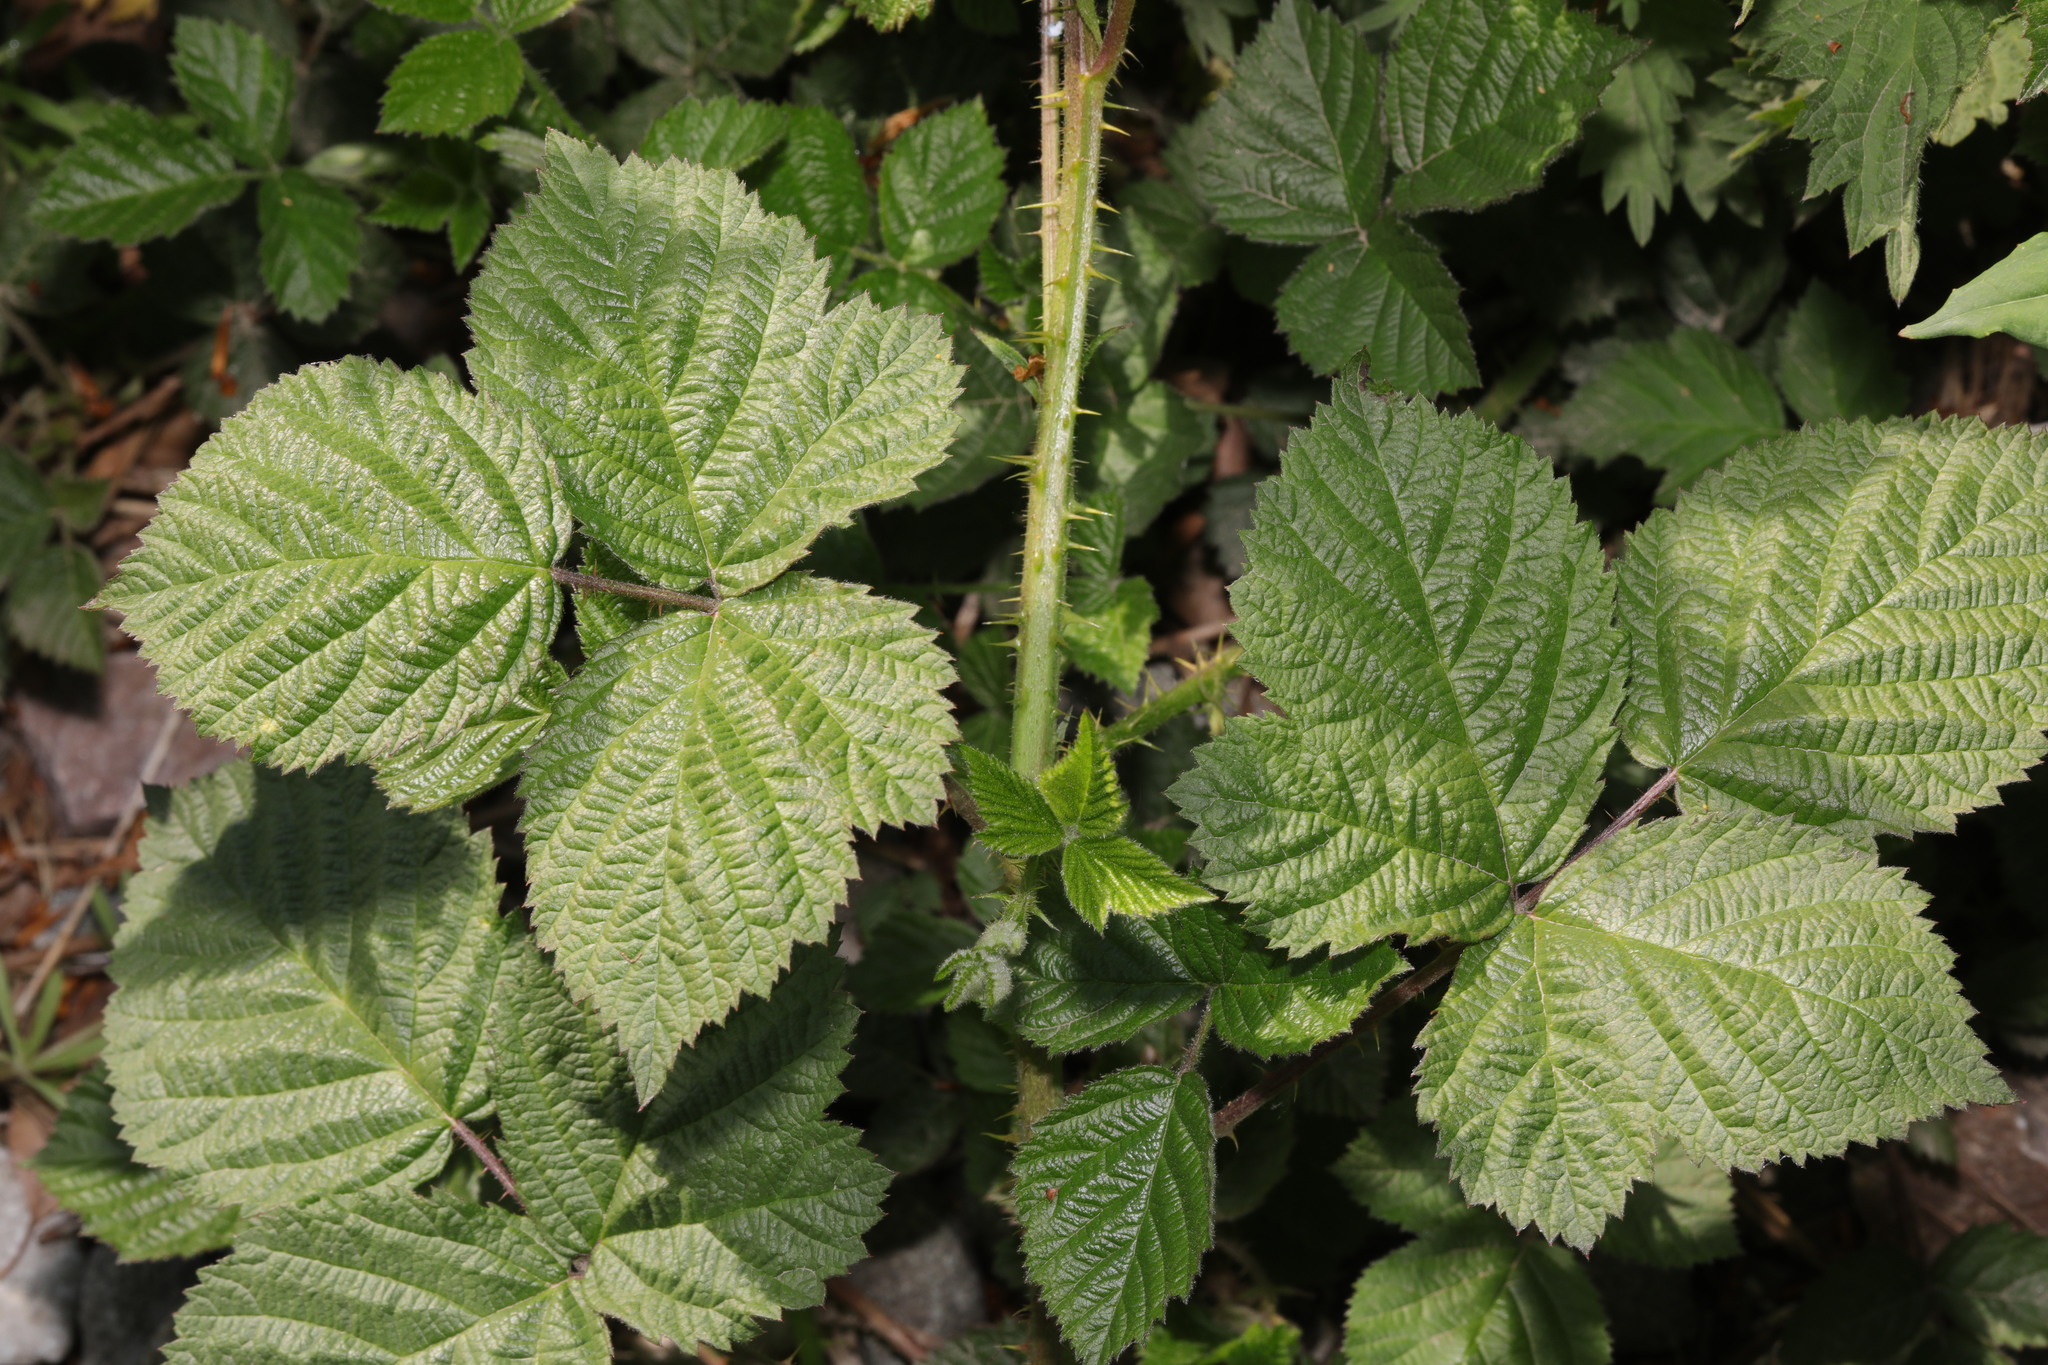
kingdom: Plantae
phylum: Tracheophyta
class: Magnoliopsida
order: Rosales
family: Rosaceae
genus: Rubus
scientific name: Rubus horrefactus
